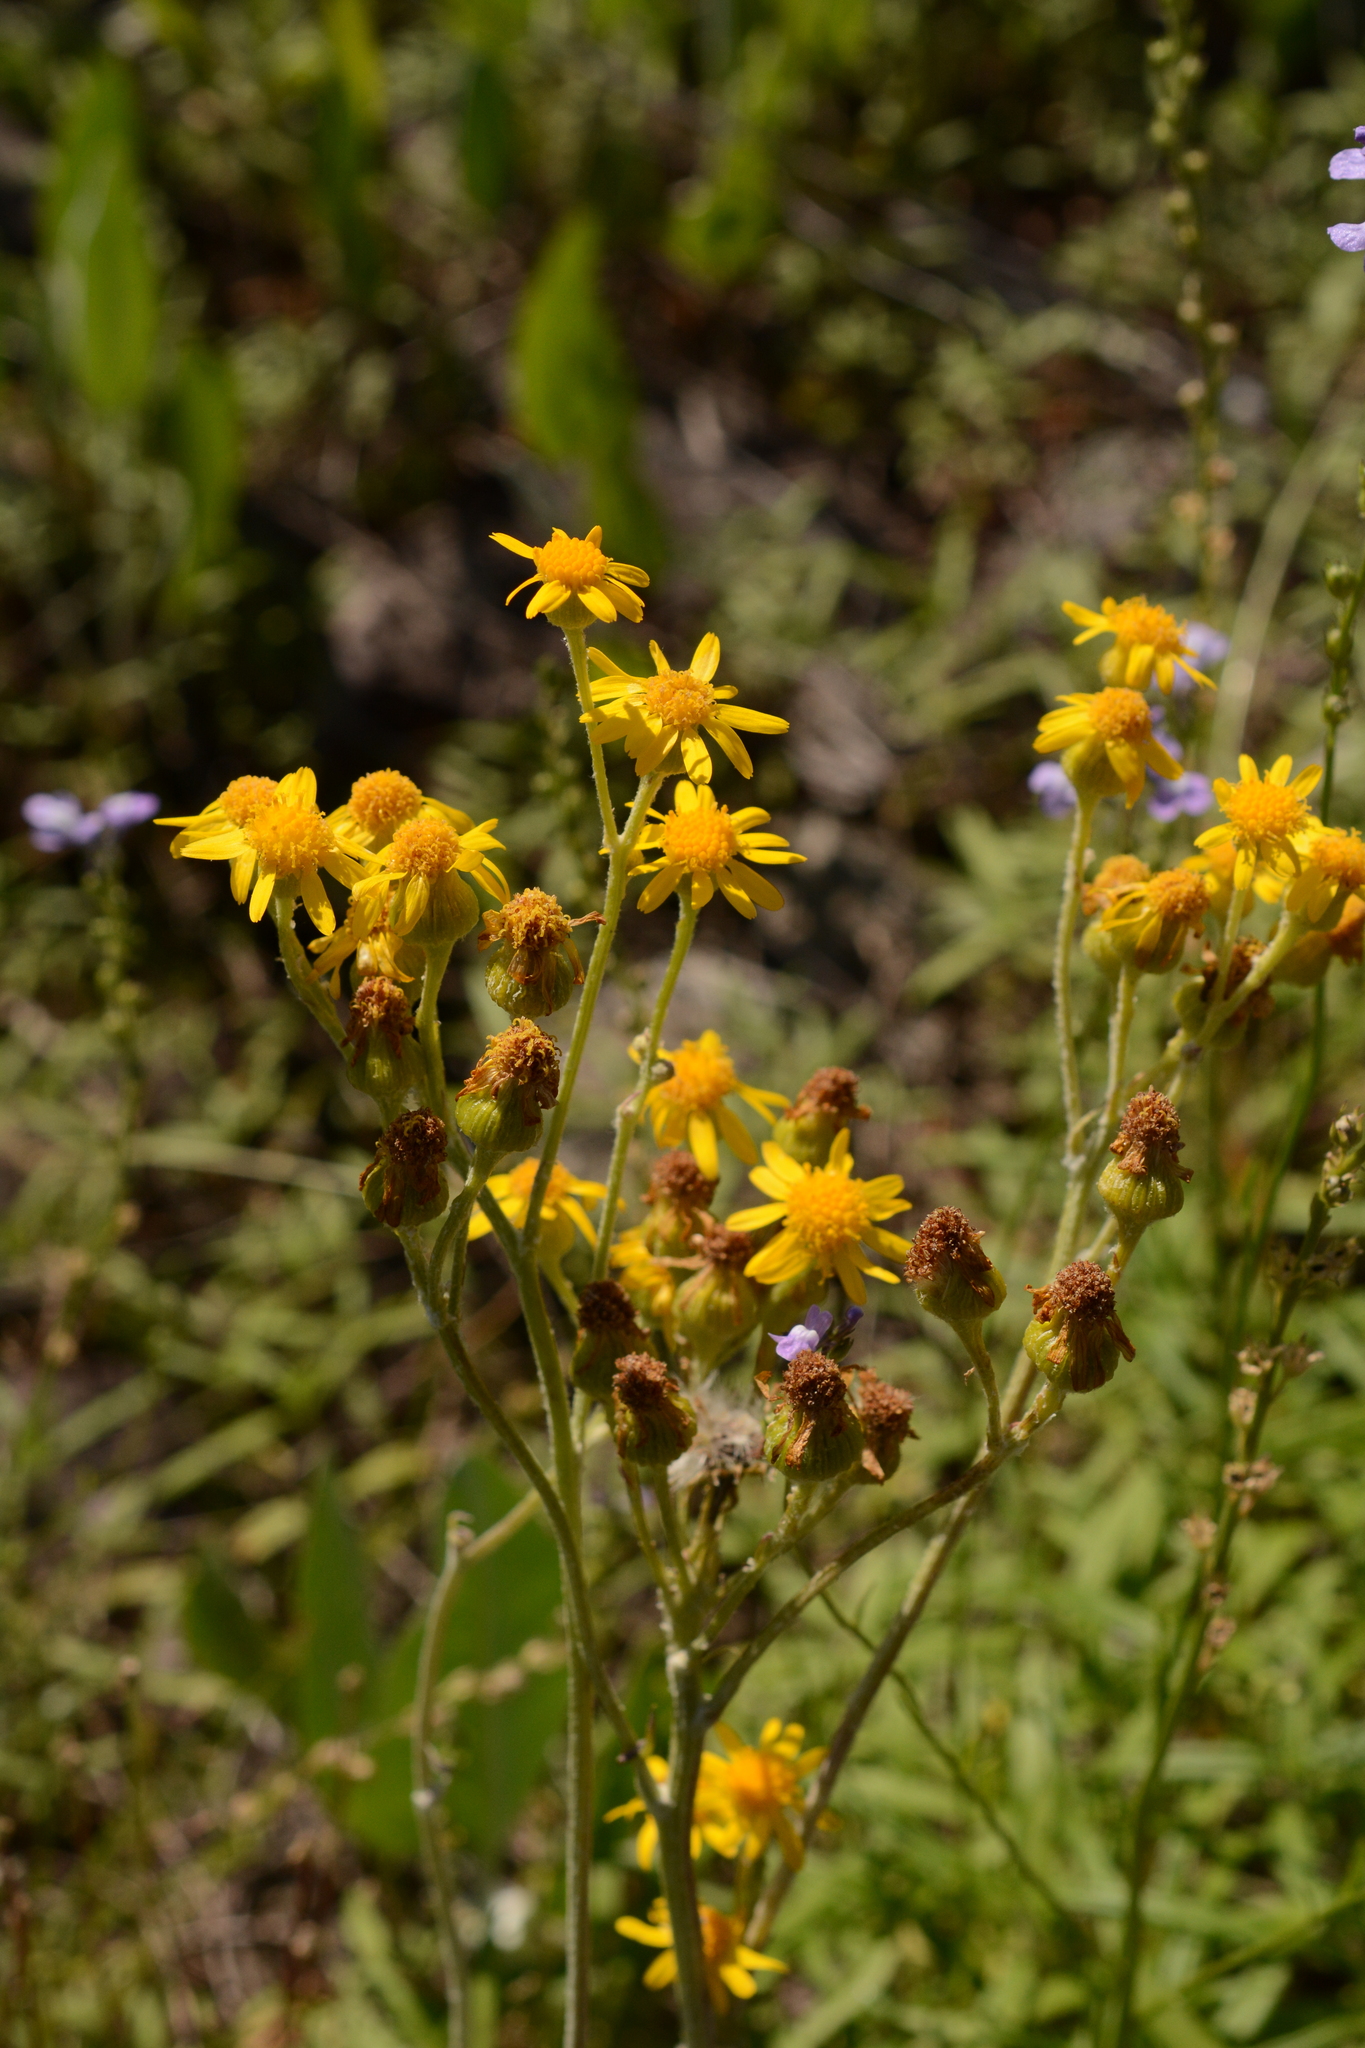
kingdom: Plantae
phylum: Tracheophyta
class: Magnoliopsida
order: Asterales
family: Asteraceae
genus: Packera
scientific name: Packera dubia
